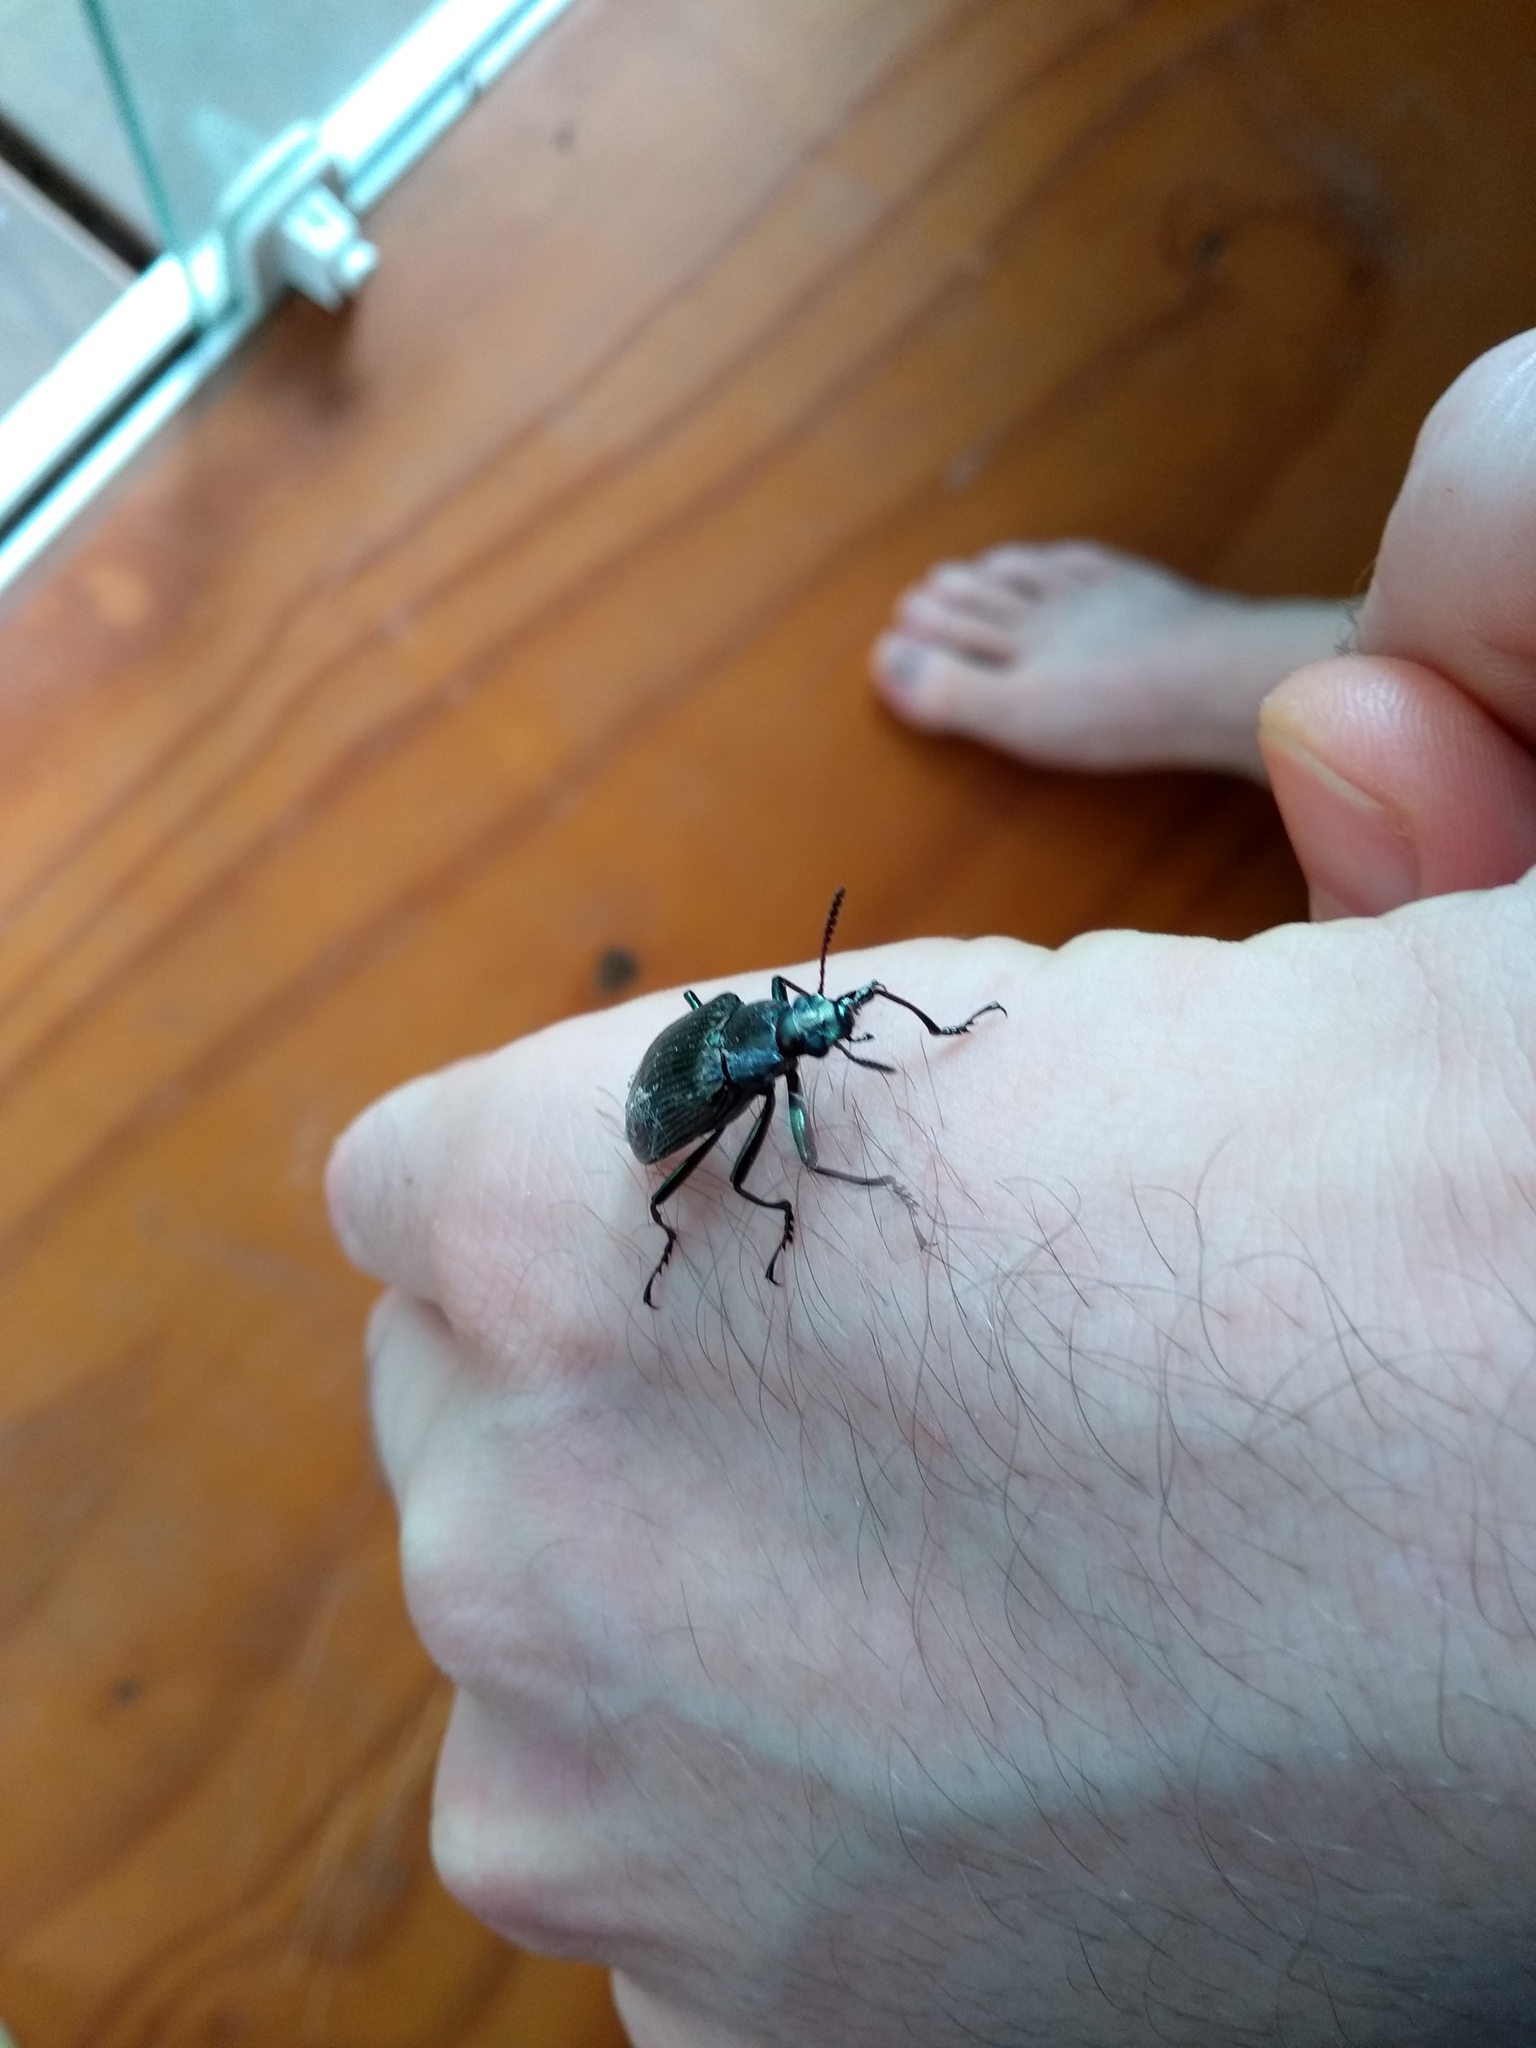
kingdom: Animalia
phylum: Arthropoda
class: Insecta
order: Coleoptera
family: Tenebrionidae
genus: Camaria
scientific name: Camaria
